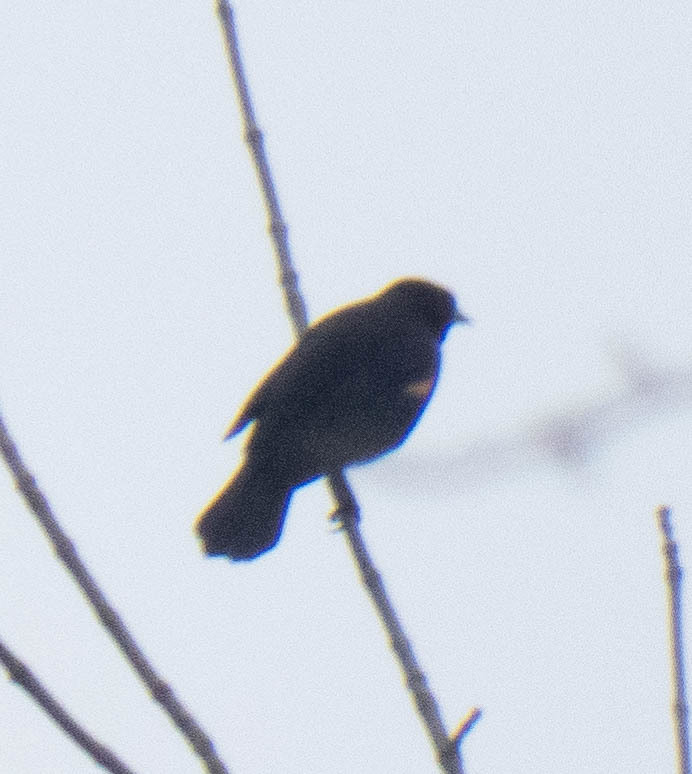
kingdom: Animalia
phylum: Chordata
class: Aves
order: Passeriformes
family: Icteridae
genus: Agelaius
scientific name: Agelaius phoeniceus
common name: Red-winged blackbird
